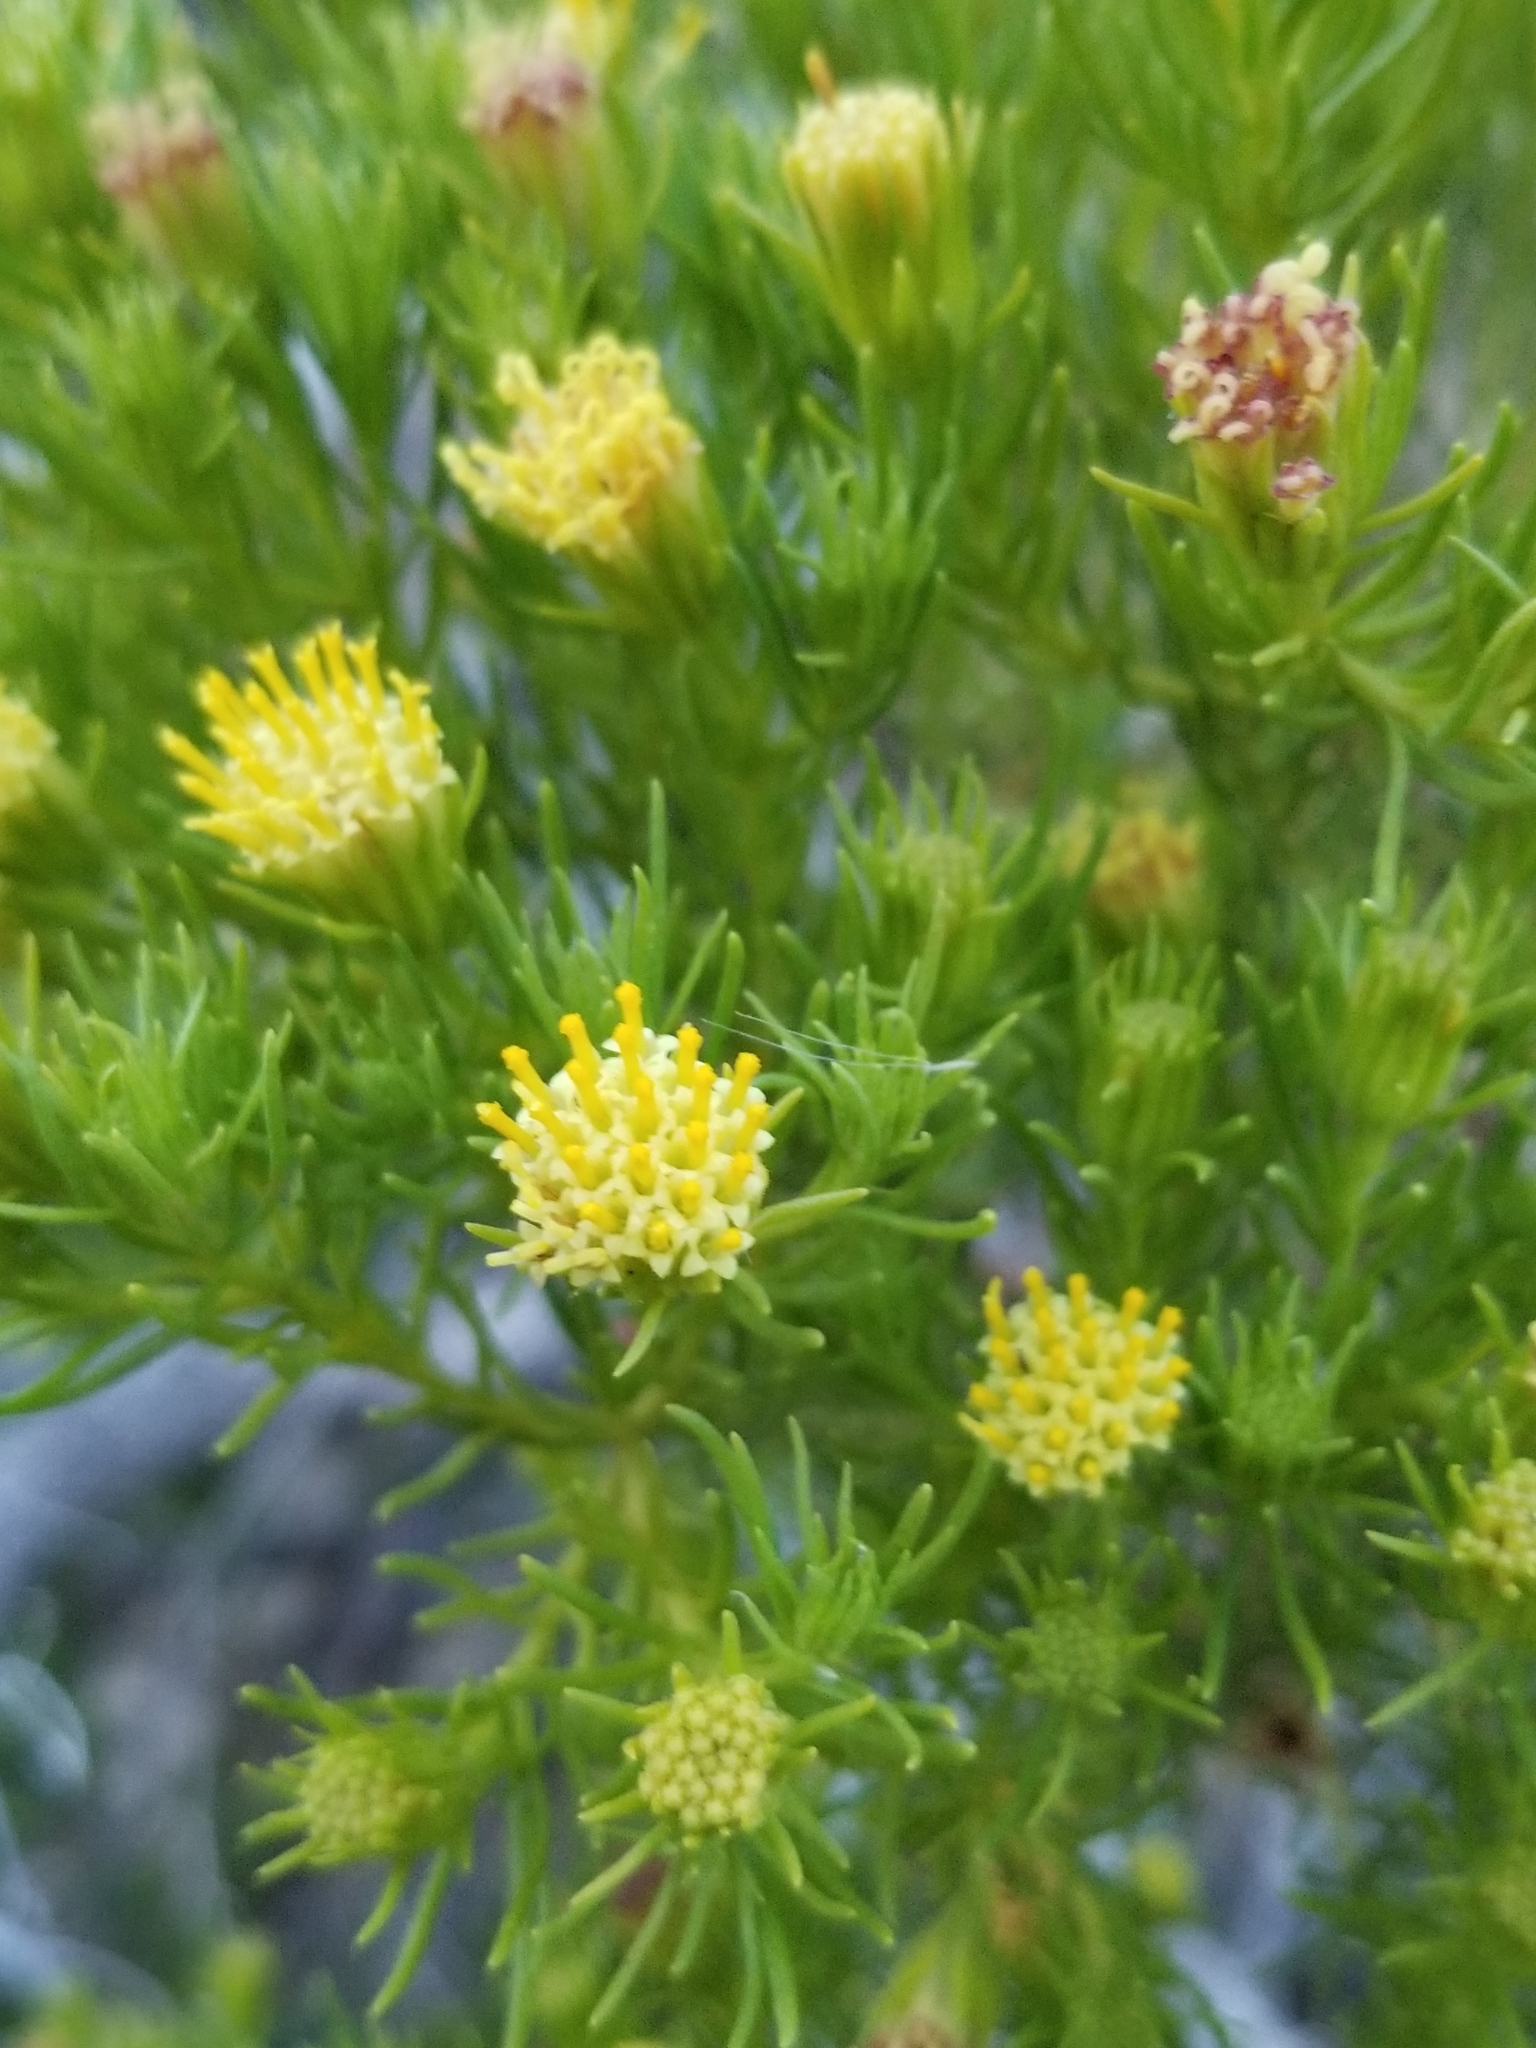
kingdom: Plantae
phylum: Tracheophyta
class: Magnoliopsida
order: Asterales
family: Asteraceae
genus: Peucephyllum
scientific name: Peucephyllum schottii
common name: Pygmy-cedar
